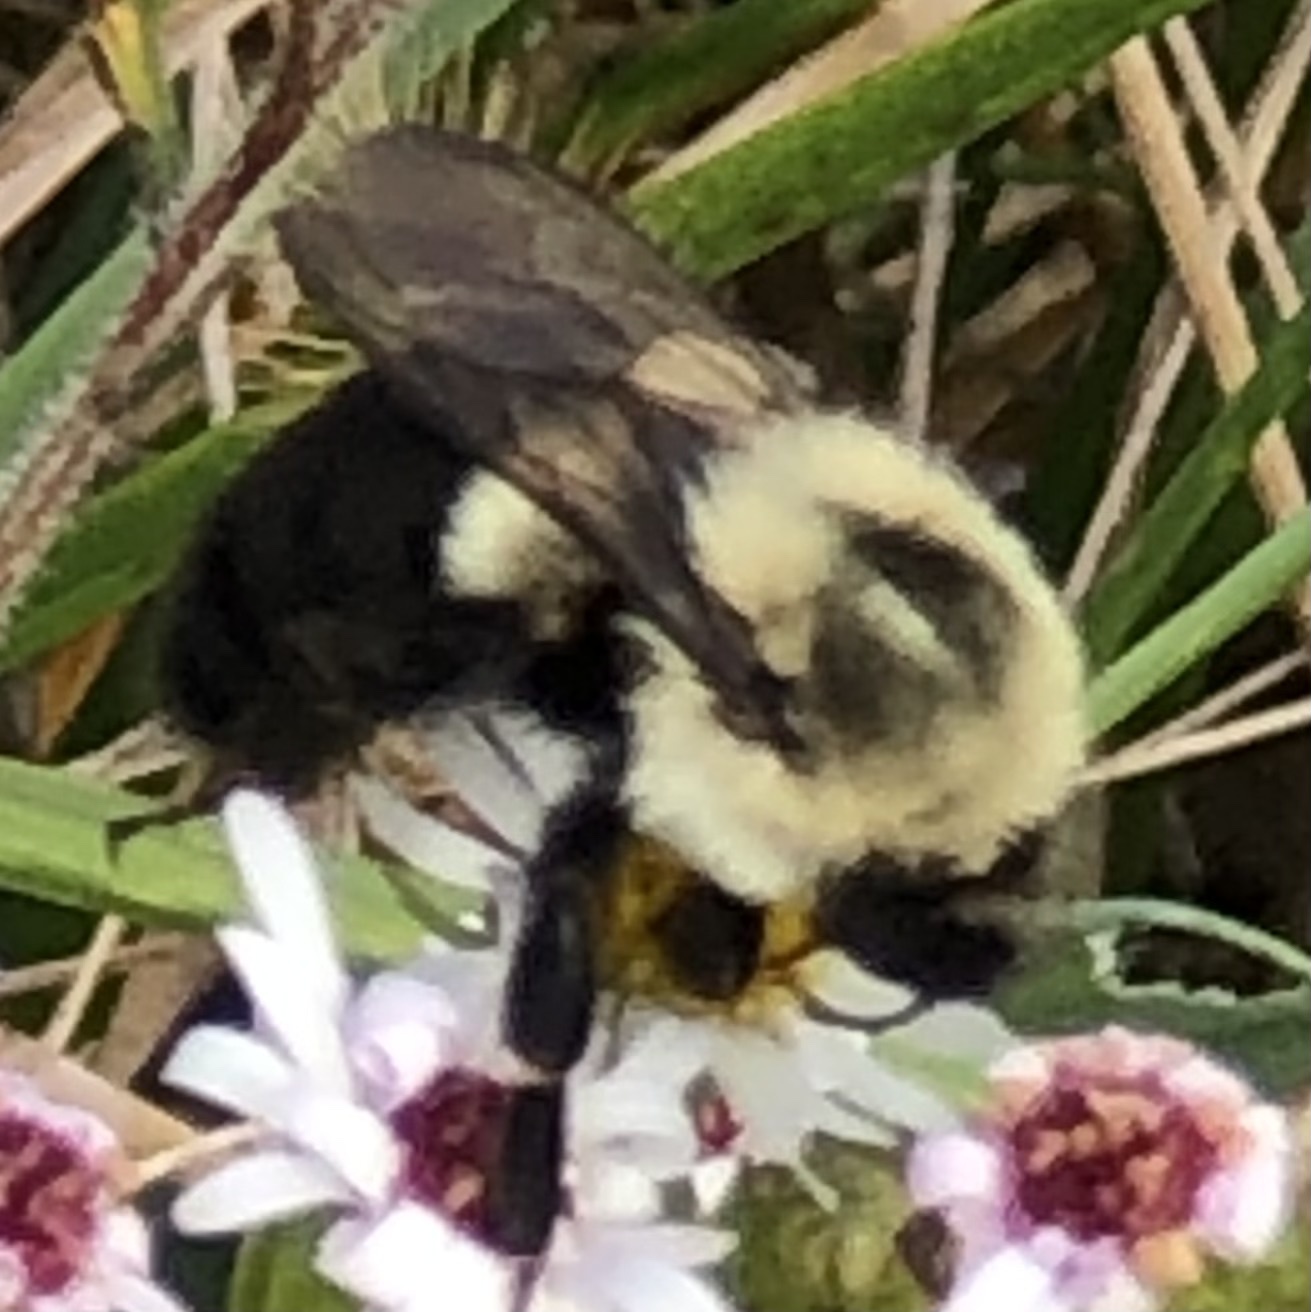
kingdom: Animalia
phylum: Arthropoda
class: Insecta
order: Hymenoptera
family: Apidae
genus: Bombus
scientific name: Bombus impatiens
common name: Common eastern bumble bee
